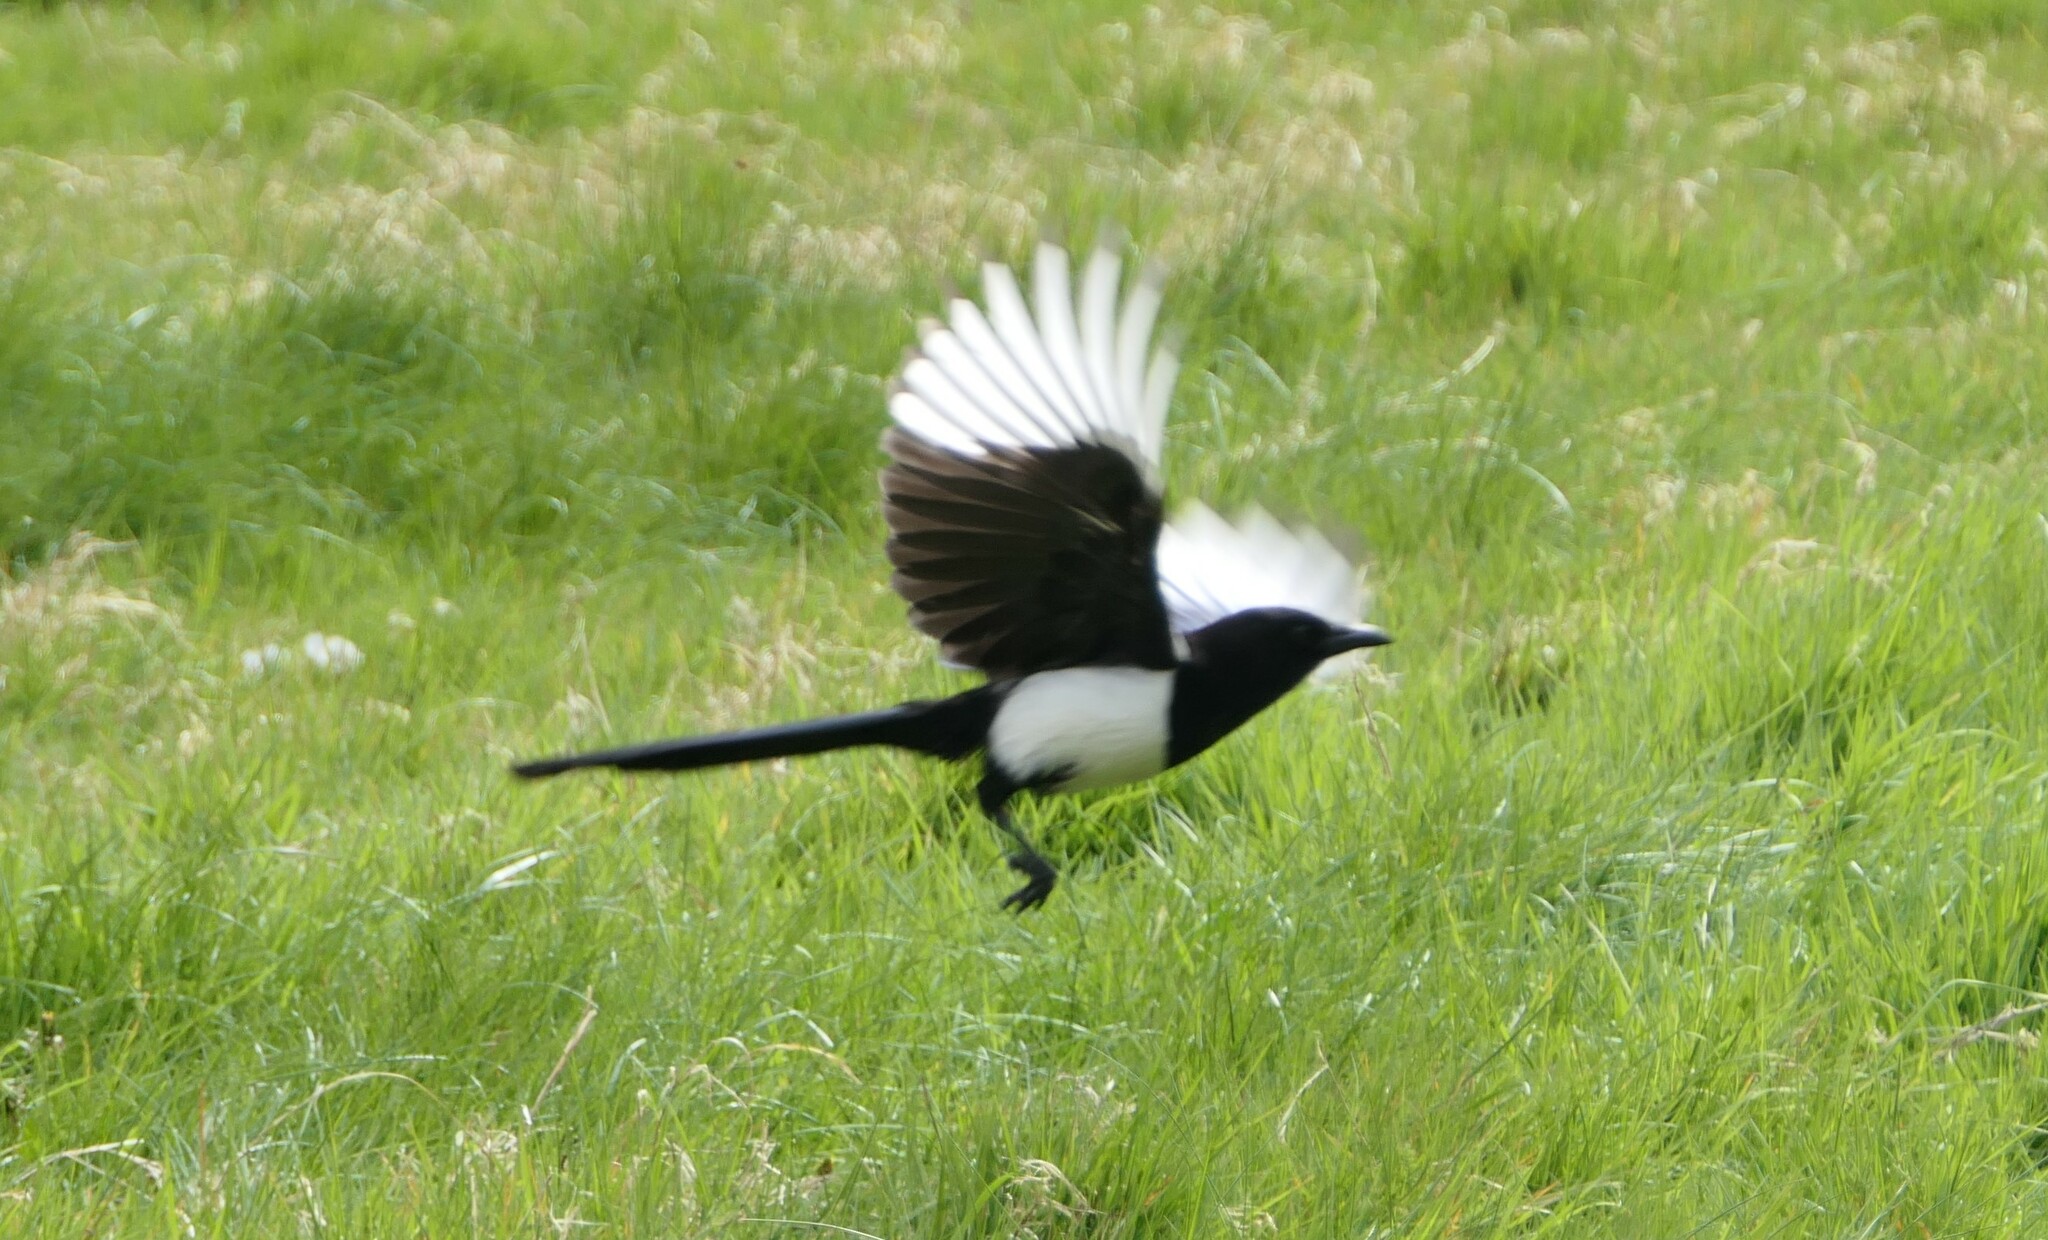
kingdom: Animalia
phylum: Chordata
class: Aves
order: Passeriformes
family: Corvidae
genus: Pica
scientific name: Pica pica
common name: Eurasian magpie
